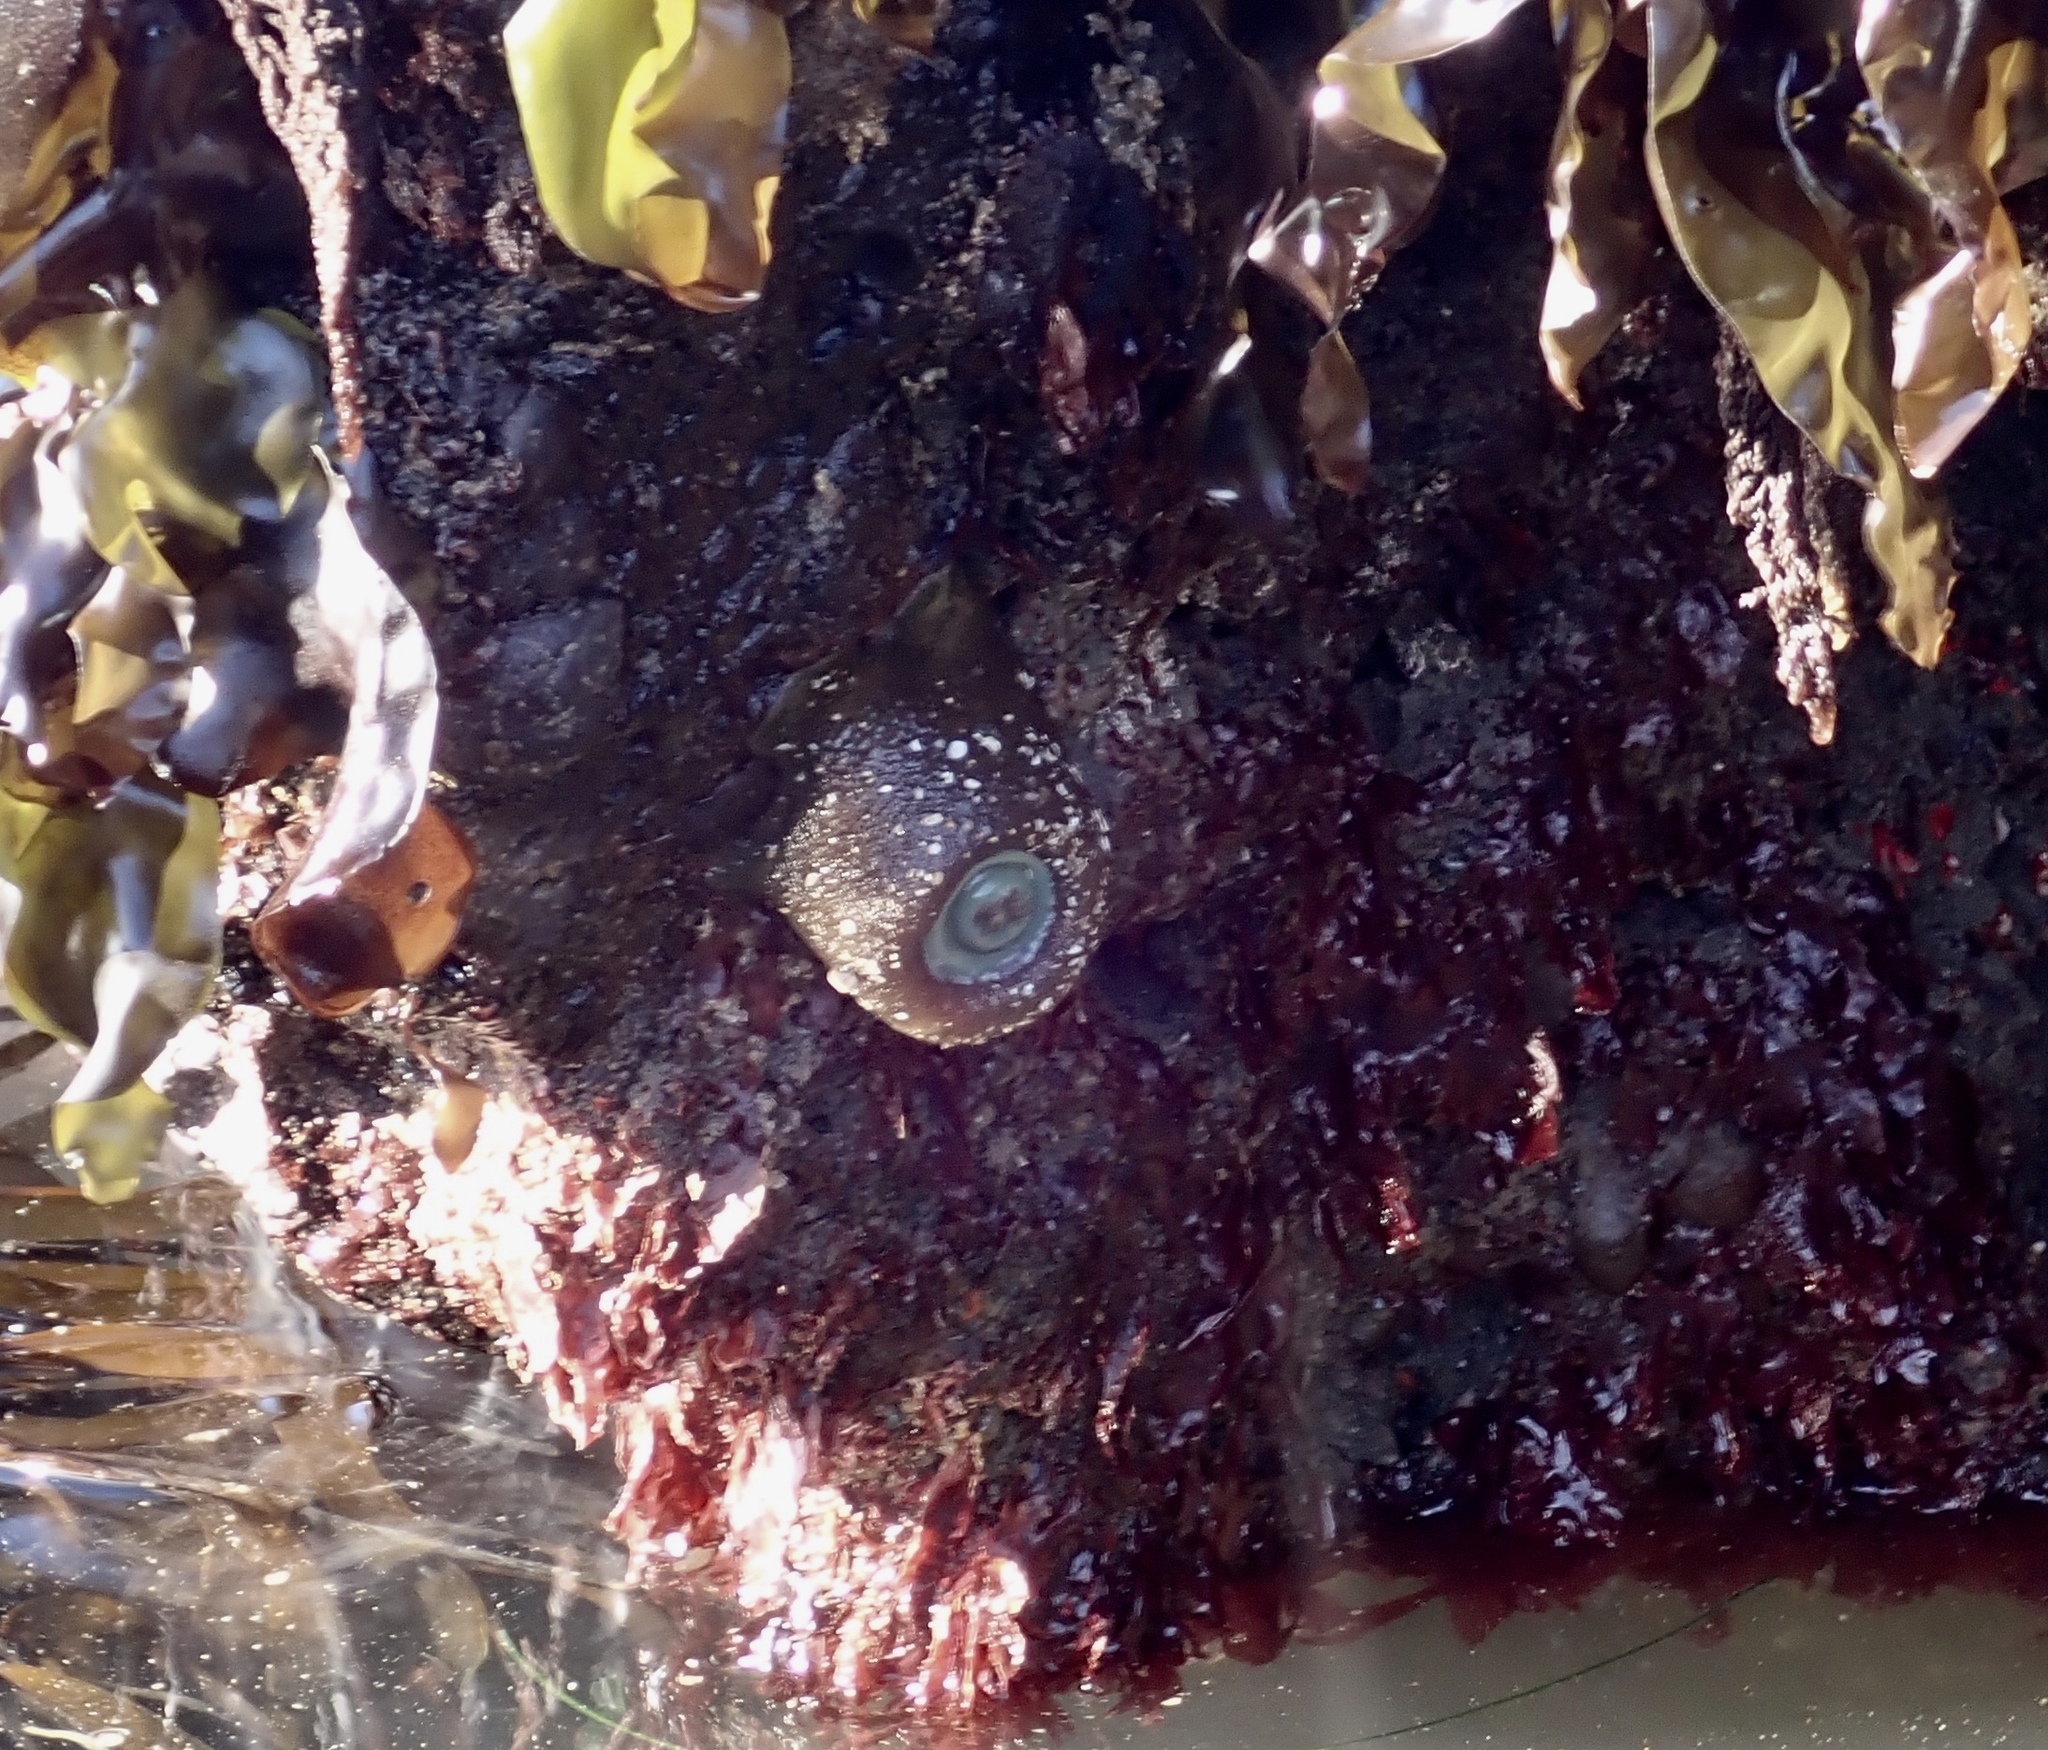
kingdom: Animalia
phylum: Cnidaria
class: Anthozoa
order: Actiniaria
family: Actiniidae
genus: Anthopleura
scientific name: Anthopleura xanthogrammica
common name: Giant green anemone
